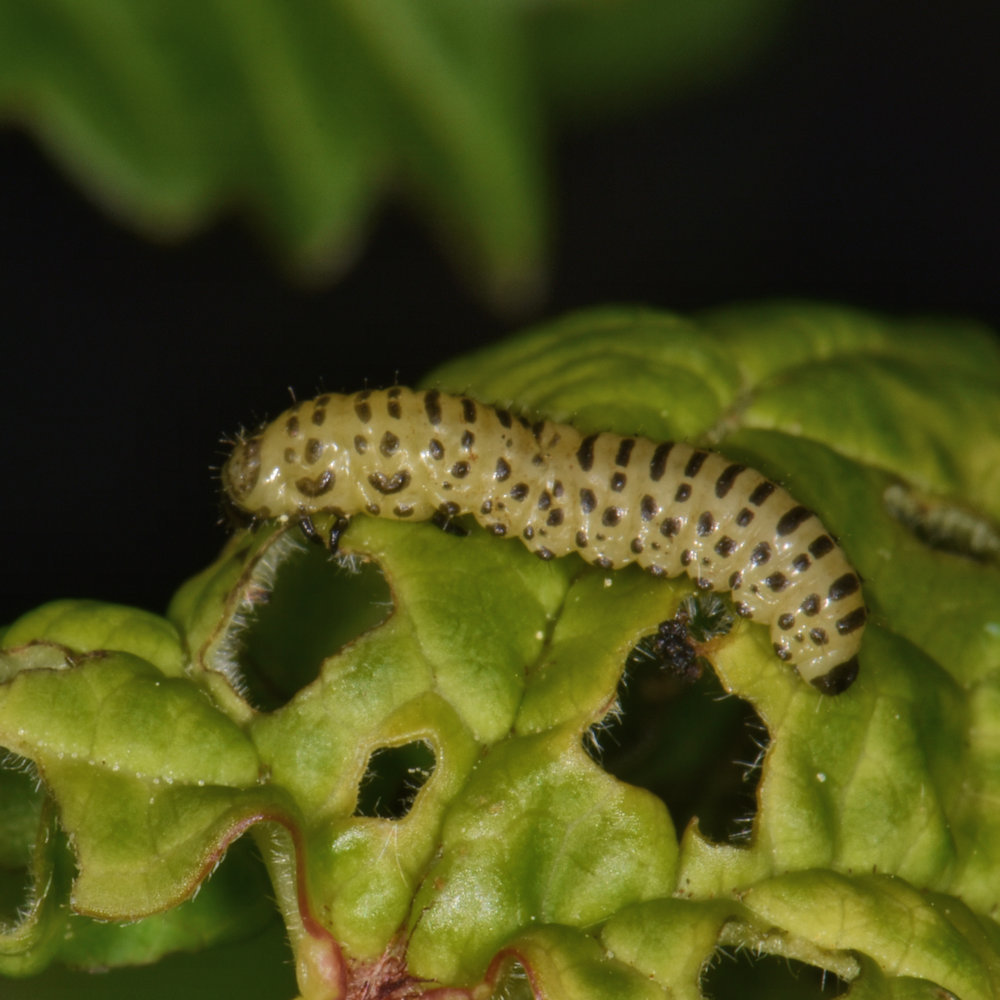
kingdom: Animalia
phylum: Arthropoda
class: Insecta
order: Coleoptera
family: Chrysomelidae
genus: Pyrrhalta
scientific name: Pyrrhalta viburni
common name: Guelder-rose leaf beetle
